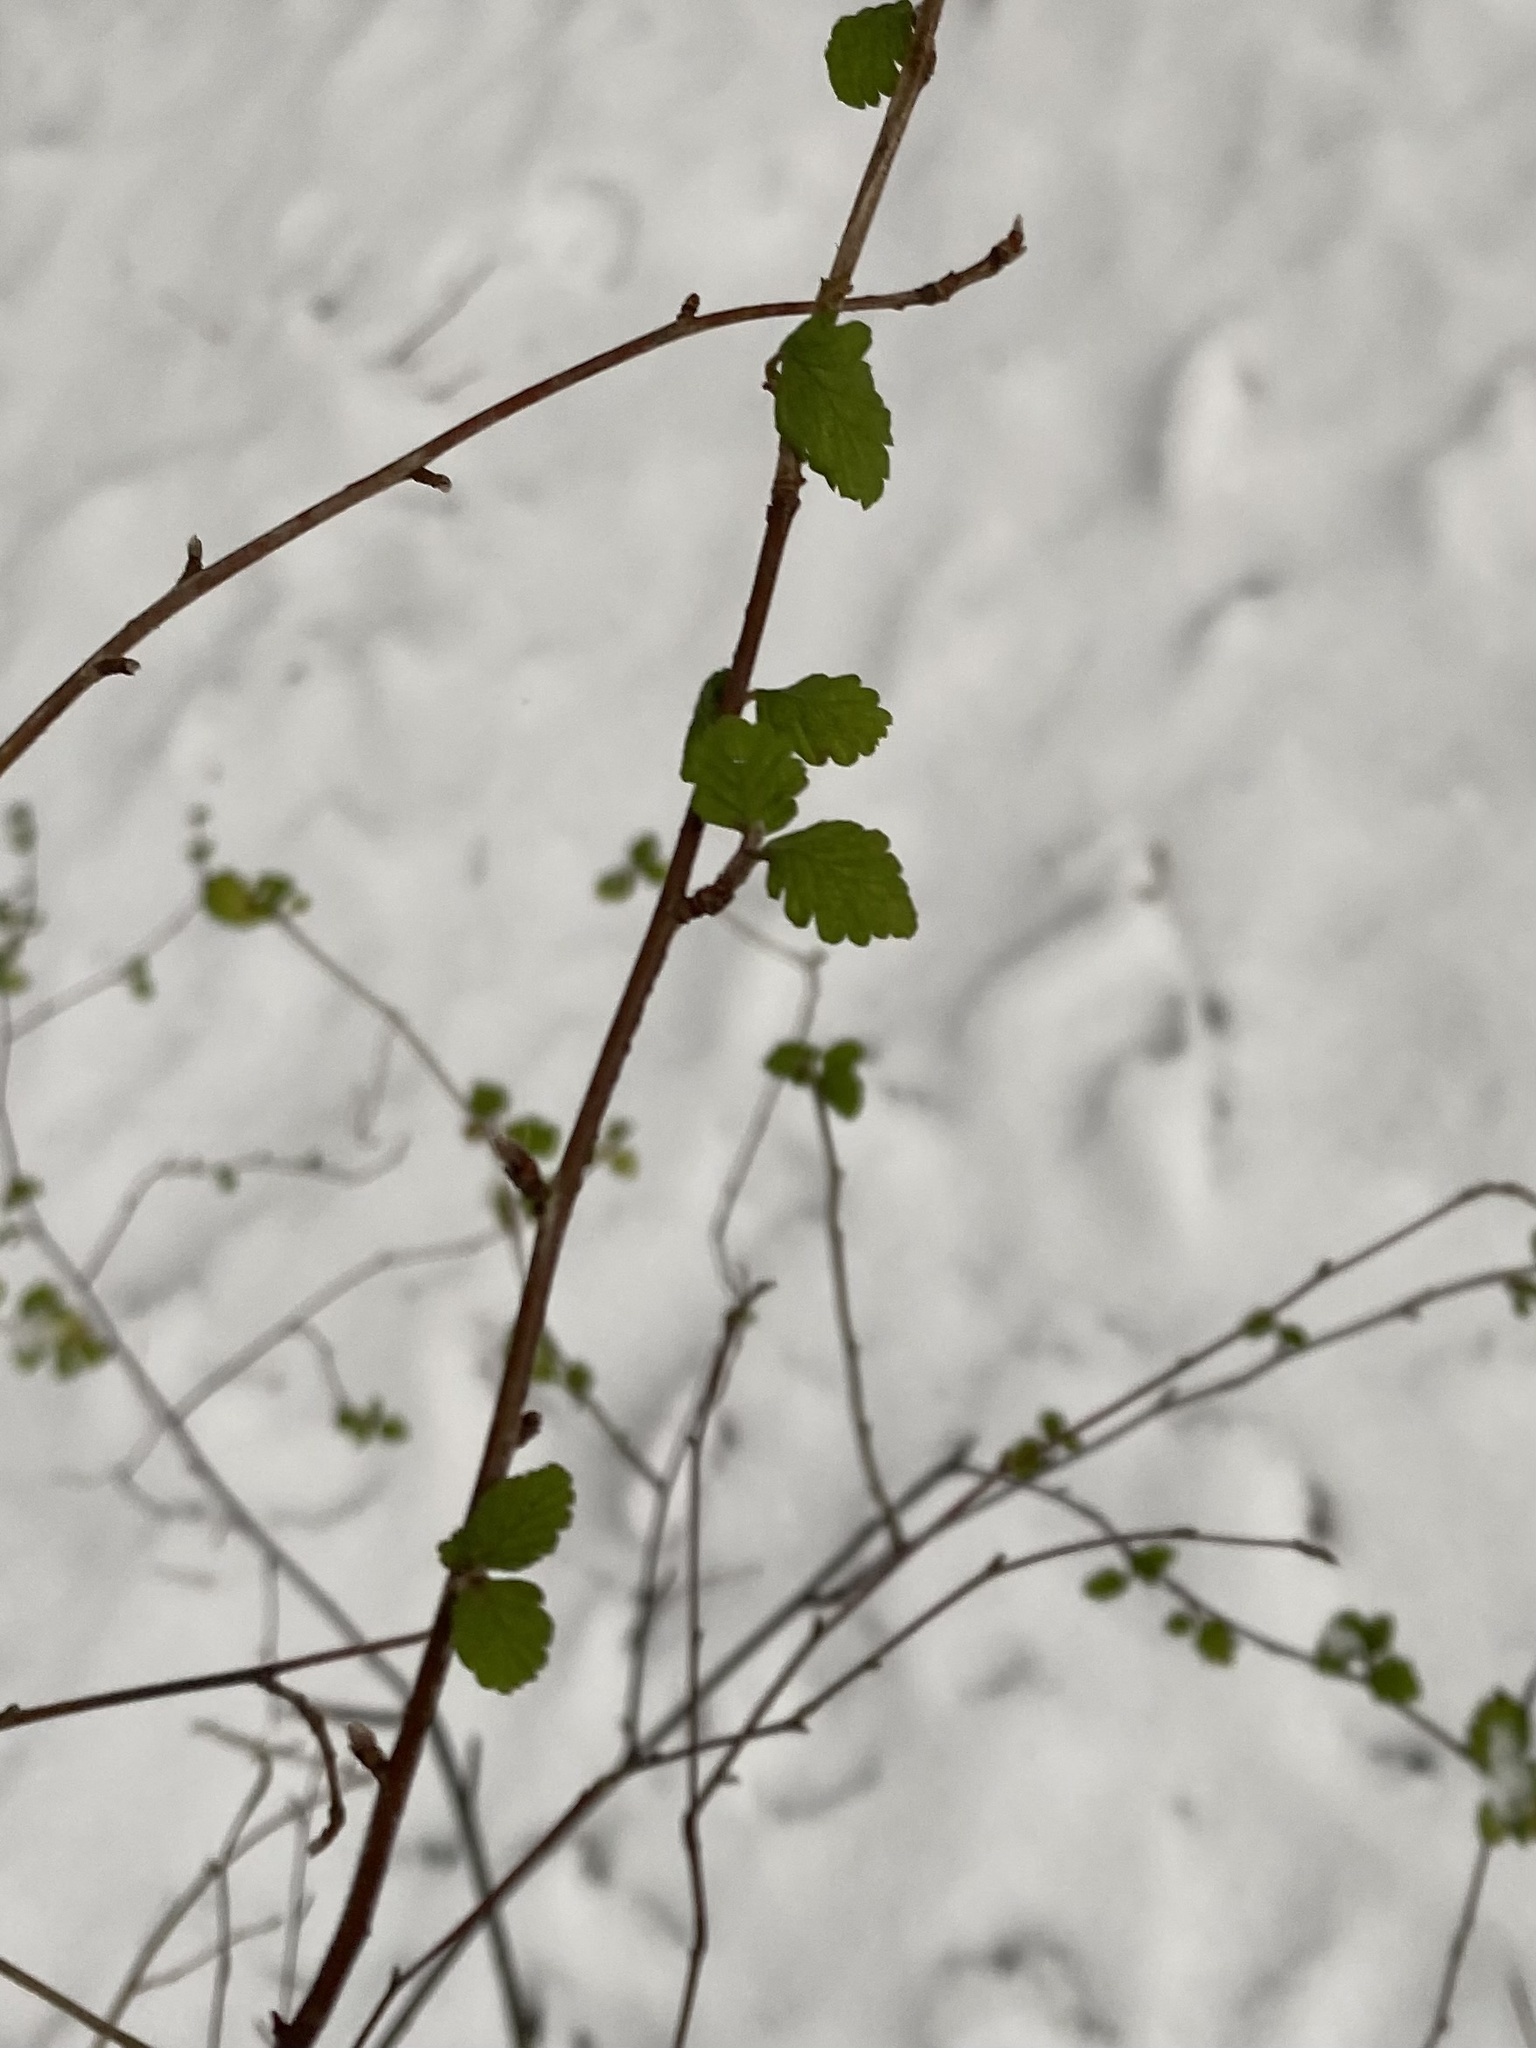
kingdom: Plantae
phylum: Tracheophyta
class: Magnoliopsida
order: Rosales
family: Rosaceae
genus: Holodiscus
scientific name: Holodiscus discolor
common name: Oceanspray
